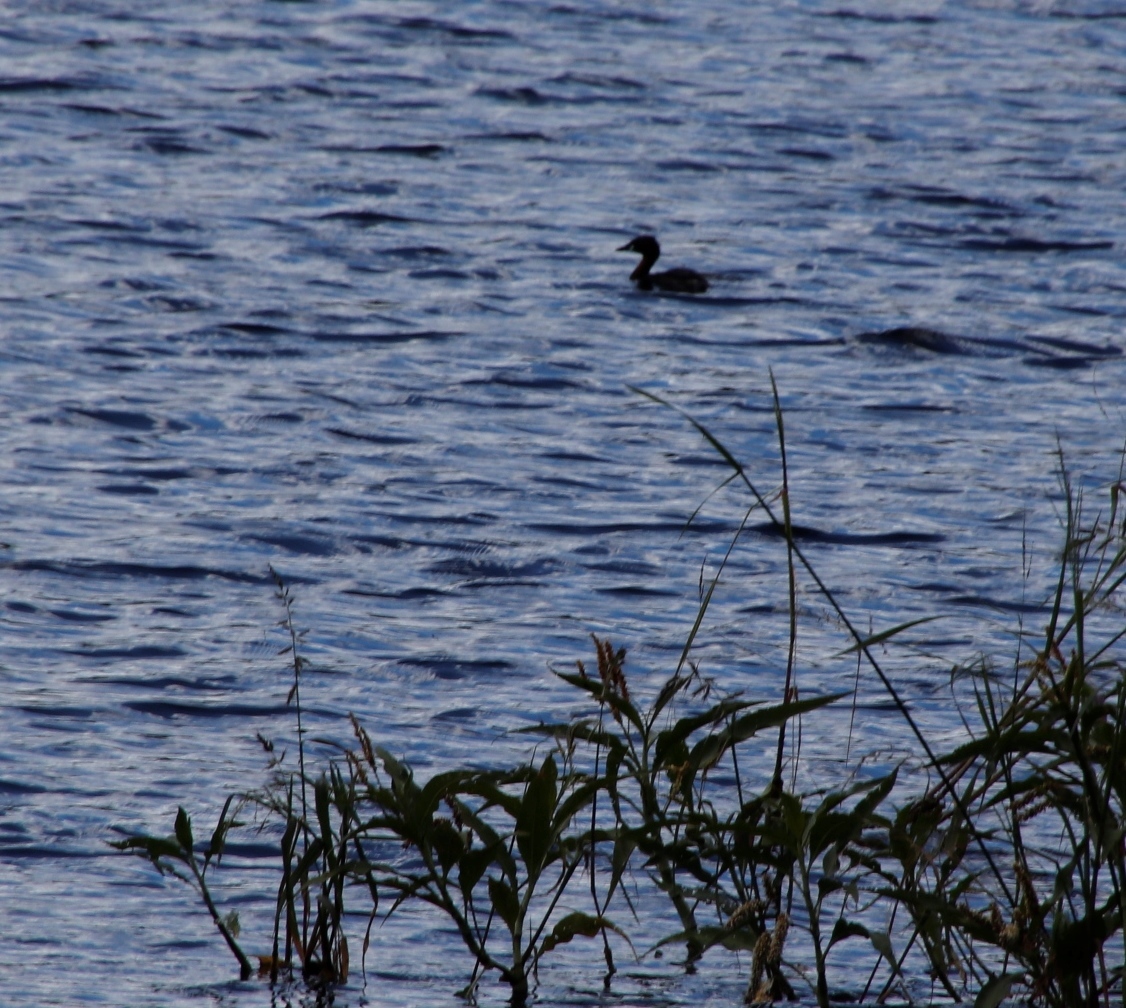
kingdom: Animalia
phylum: Chordata
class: Aves
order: Podicipediformes
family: Podicipedidae
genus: Tachybaptus
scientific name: Tachybaptus ruficollis
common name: Little grebe
